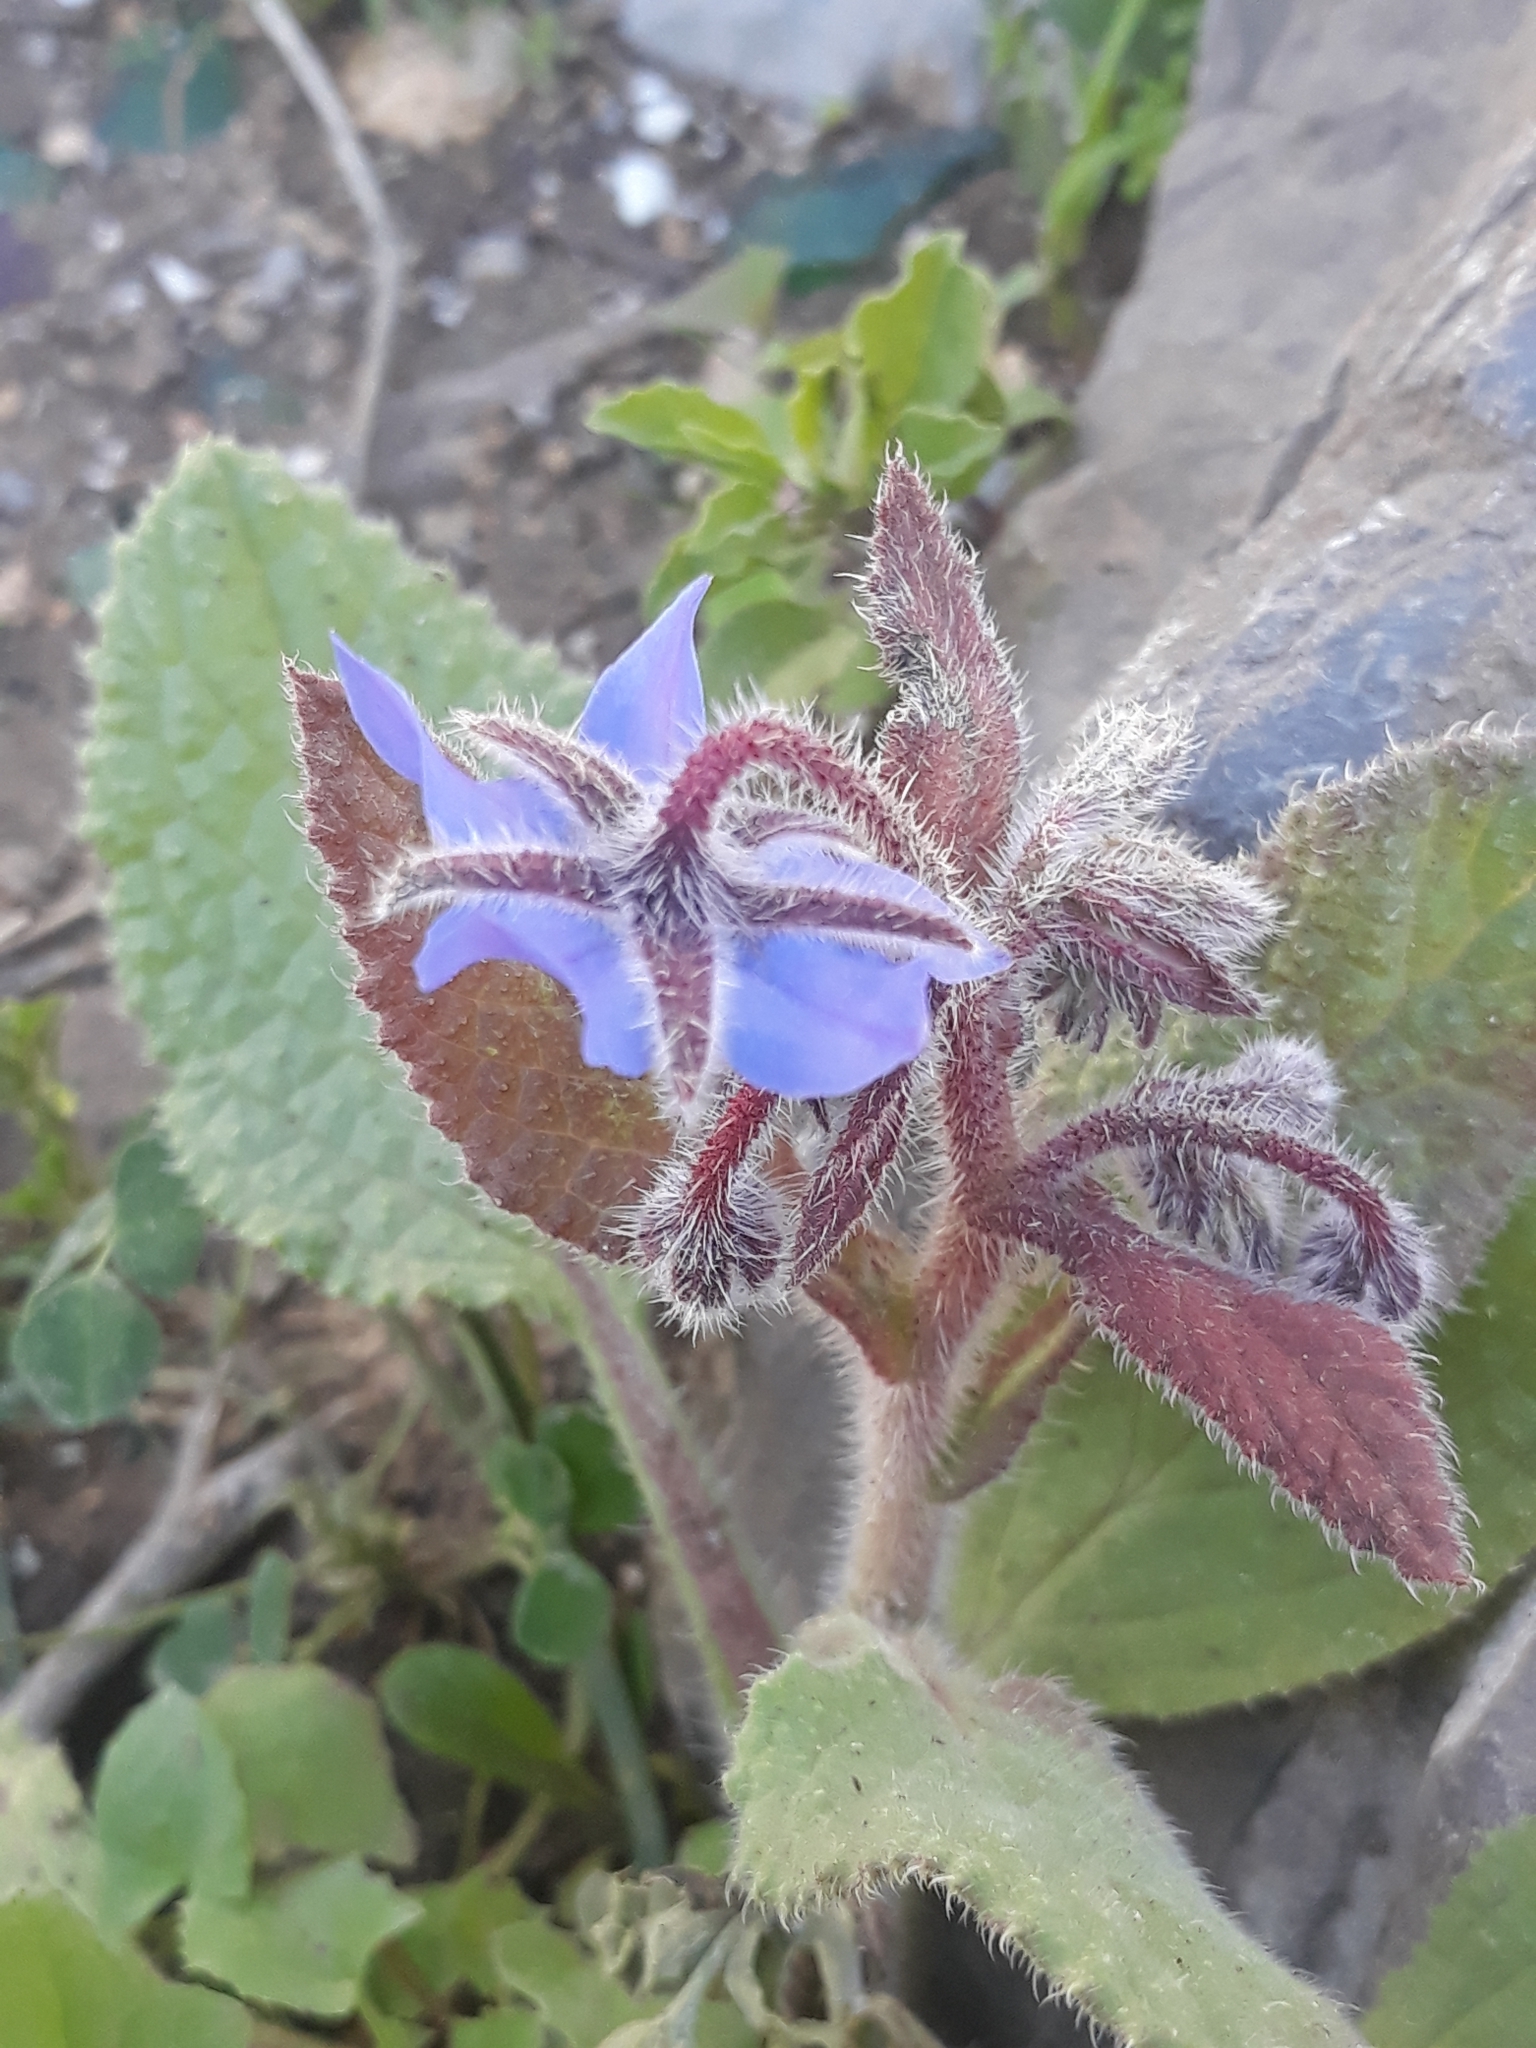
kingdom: Plantae
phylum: Tracheophyta
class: Magnoliopsida
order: Boraginales
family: Boraginaceae
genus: Borago
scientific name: Borago officinalis
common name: Borage
